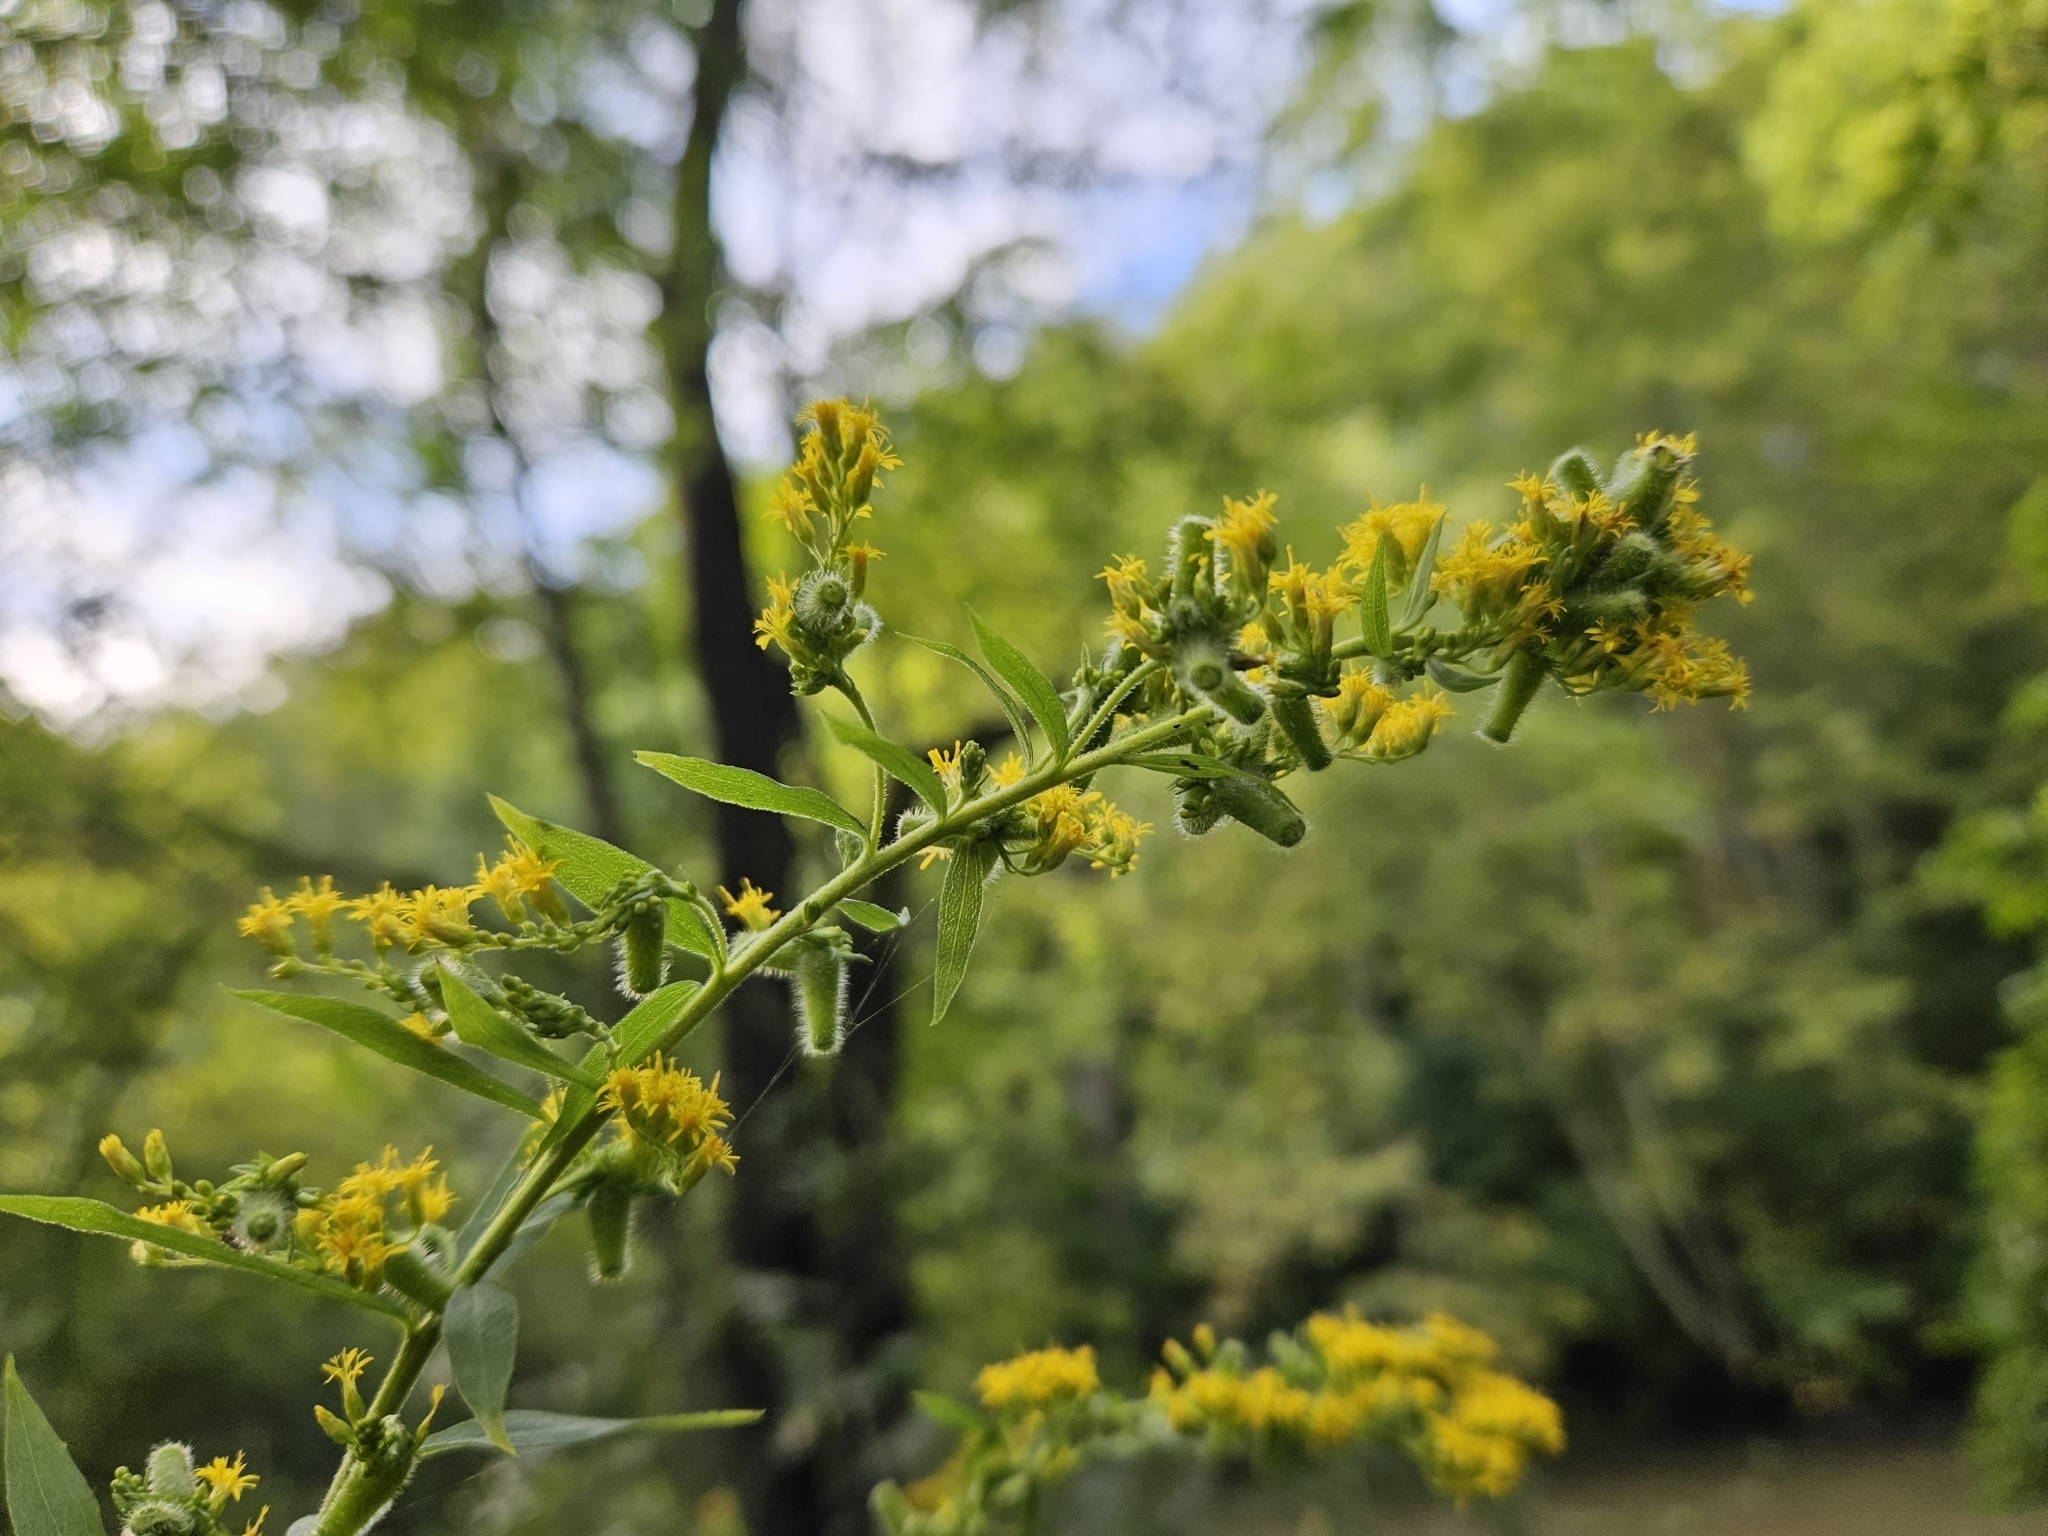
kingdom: Animalia
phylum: Arthropoda
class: Insecta
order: Diptera
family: Cecidomyiidae
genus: Rhopalomyia
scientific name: Rhopalomyia anthophila
